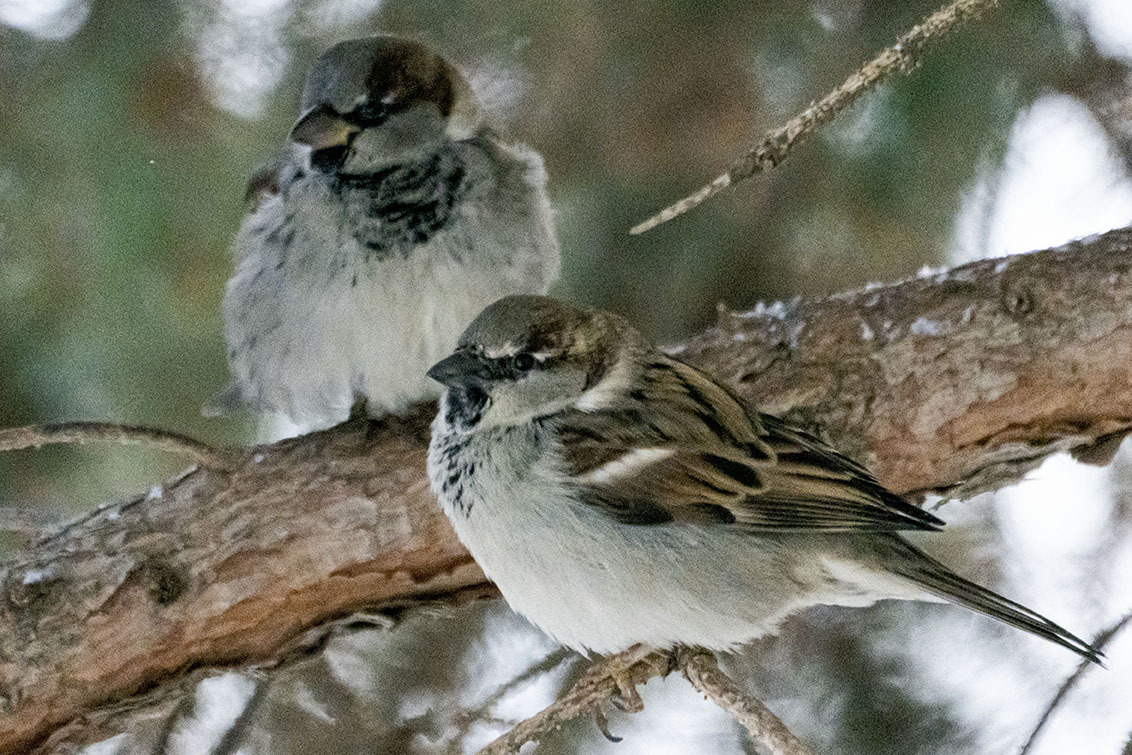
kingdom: Animalia
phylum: Chordata
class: Aves
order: Passeriformes
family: Passeridae
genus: Passer
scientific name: Passer domesticus
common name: House sparrow
